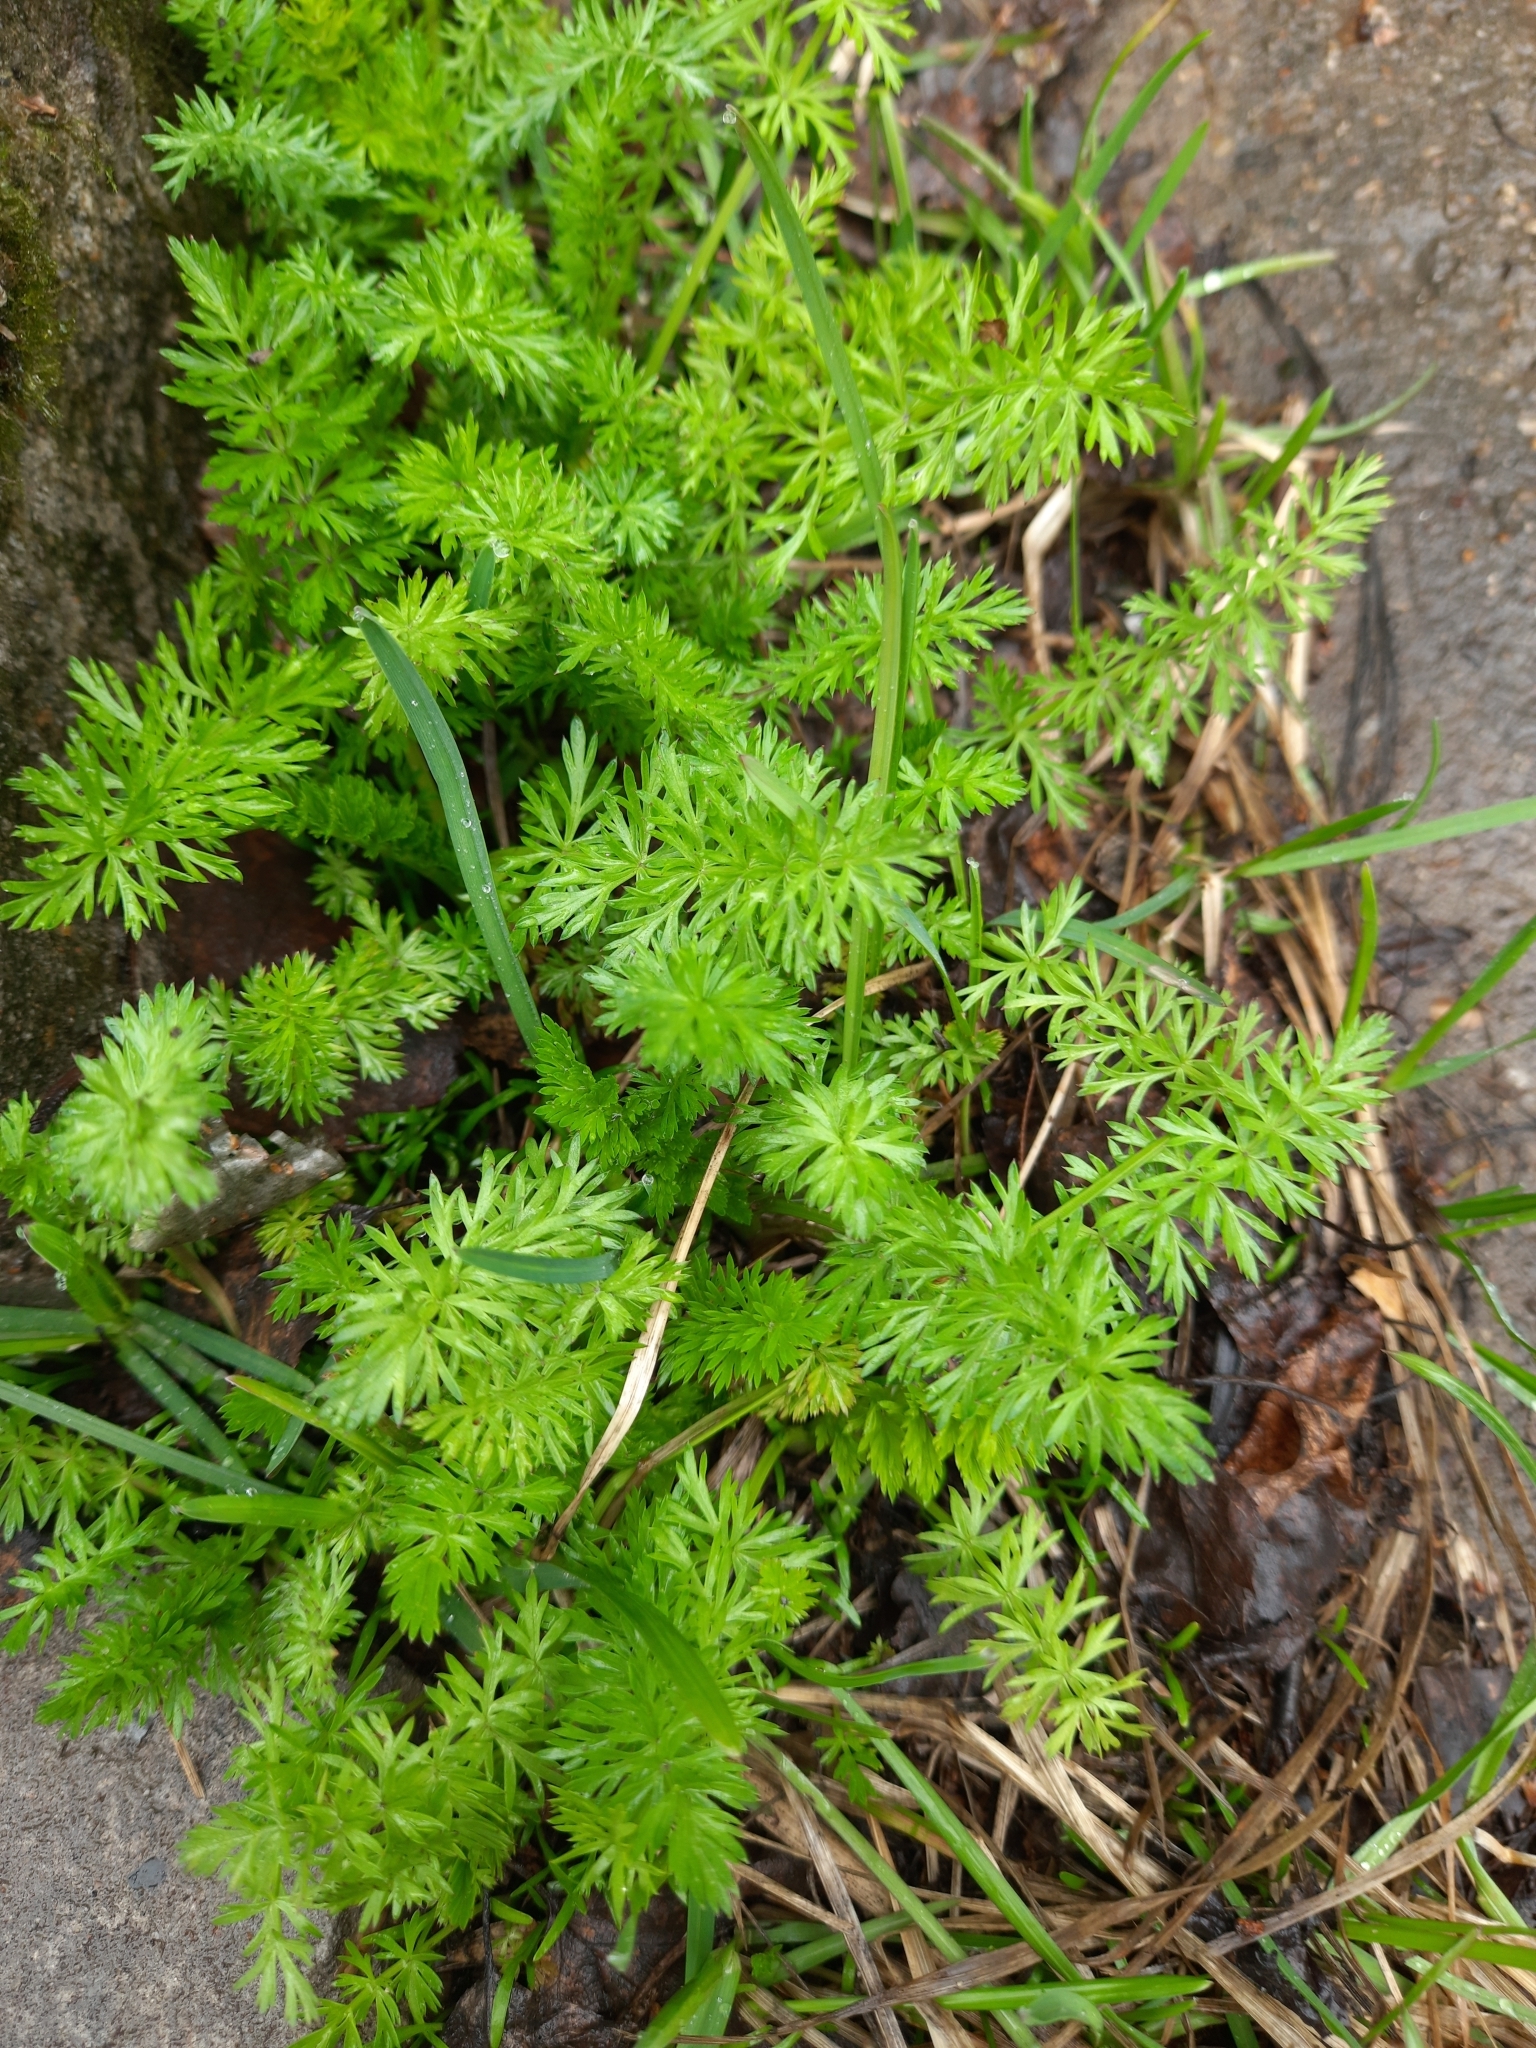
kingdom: Plantae
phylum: Tracheophyta
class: Magnoliopsida
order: Apiales
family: Apiaceae
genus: Carum
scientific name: Carum carvi
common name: Caraway
